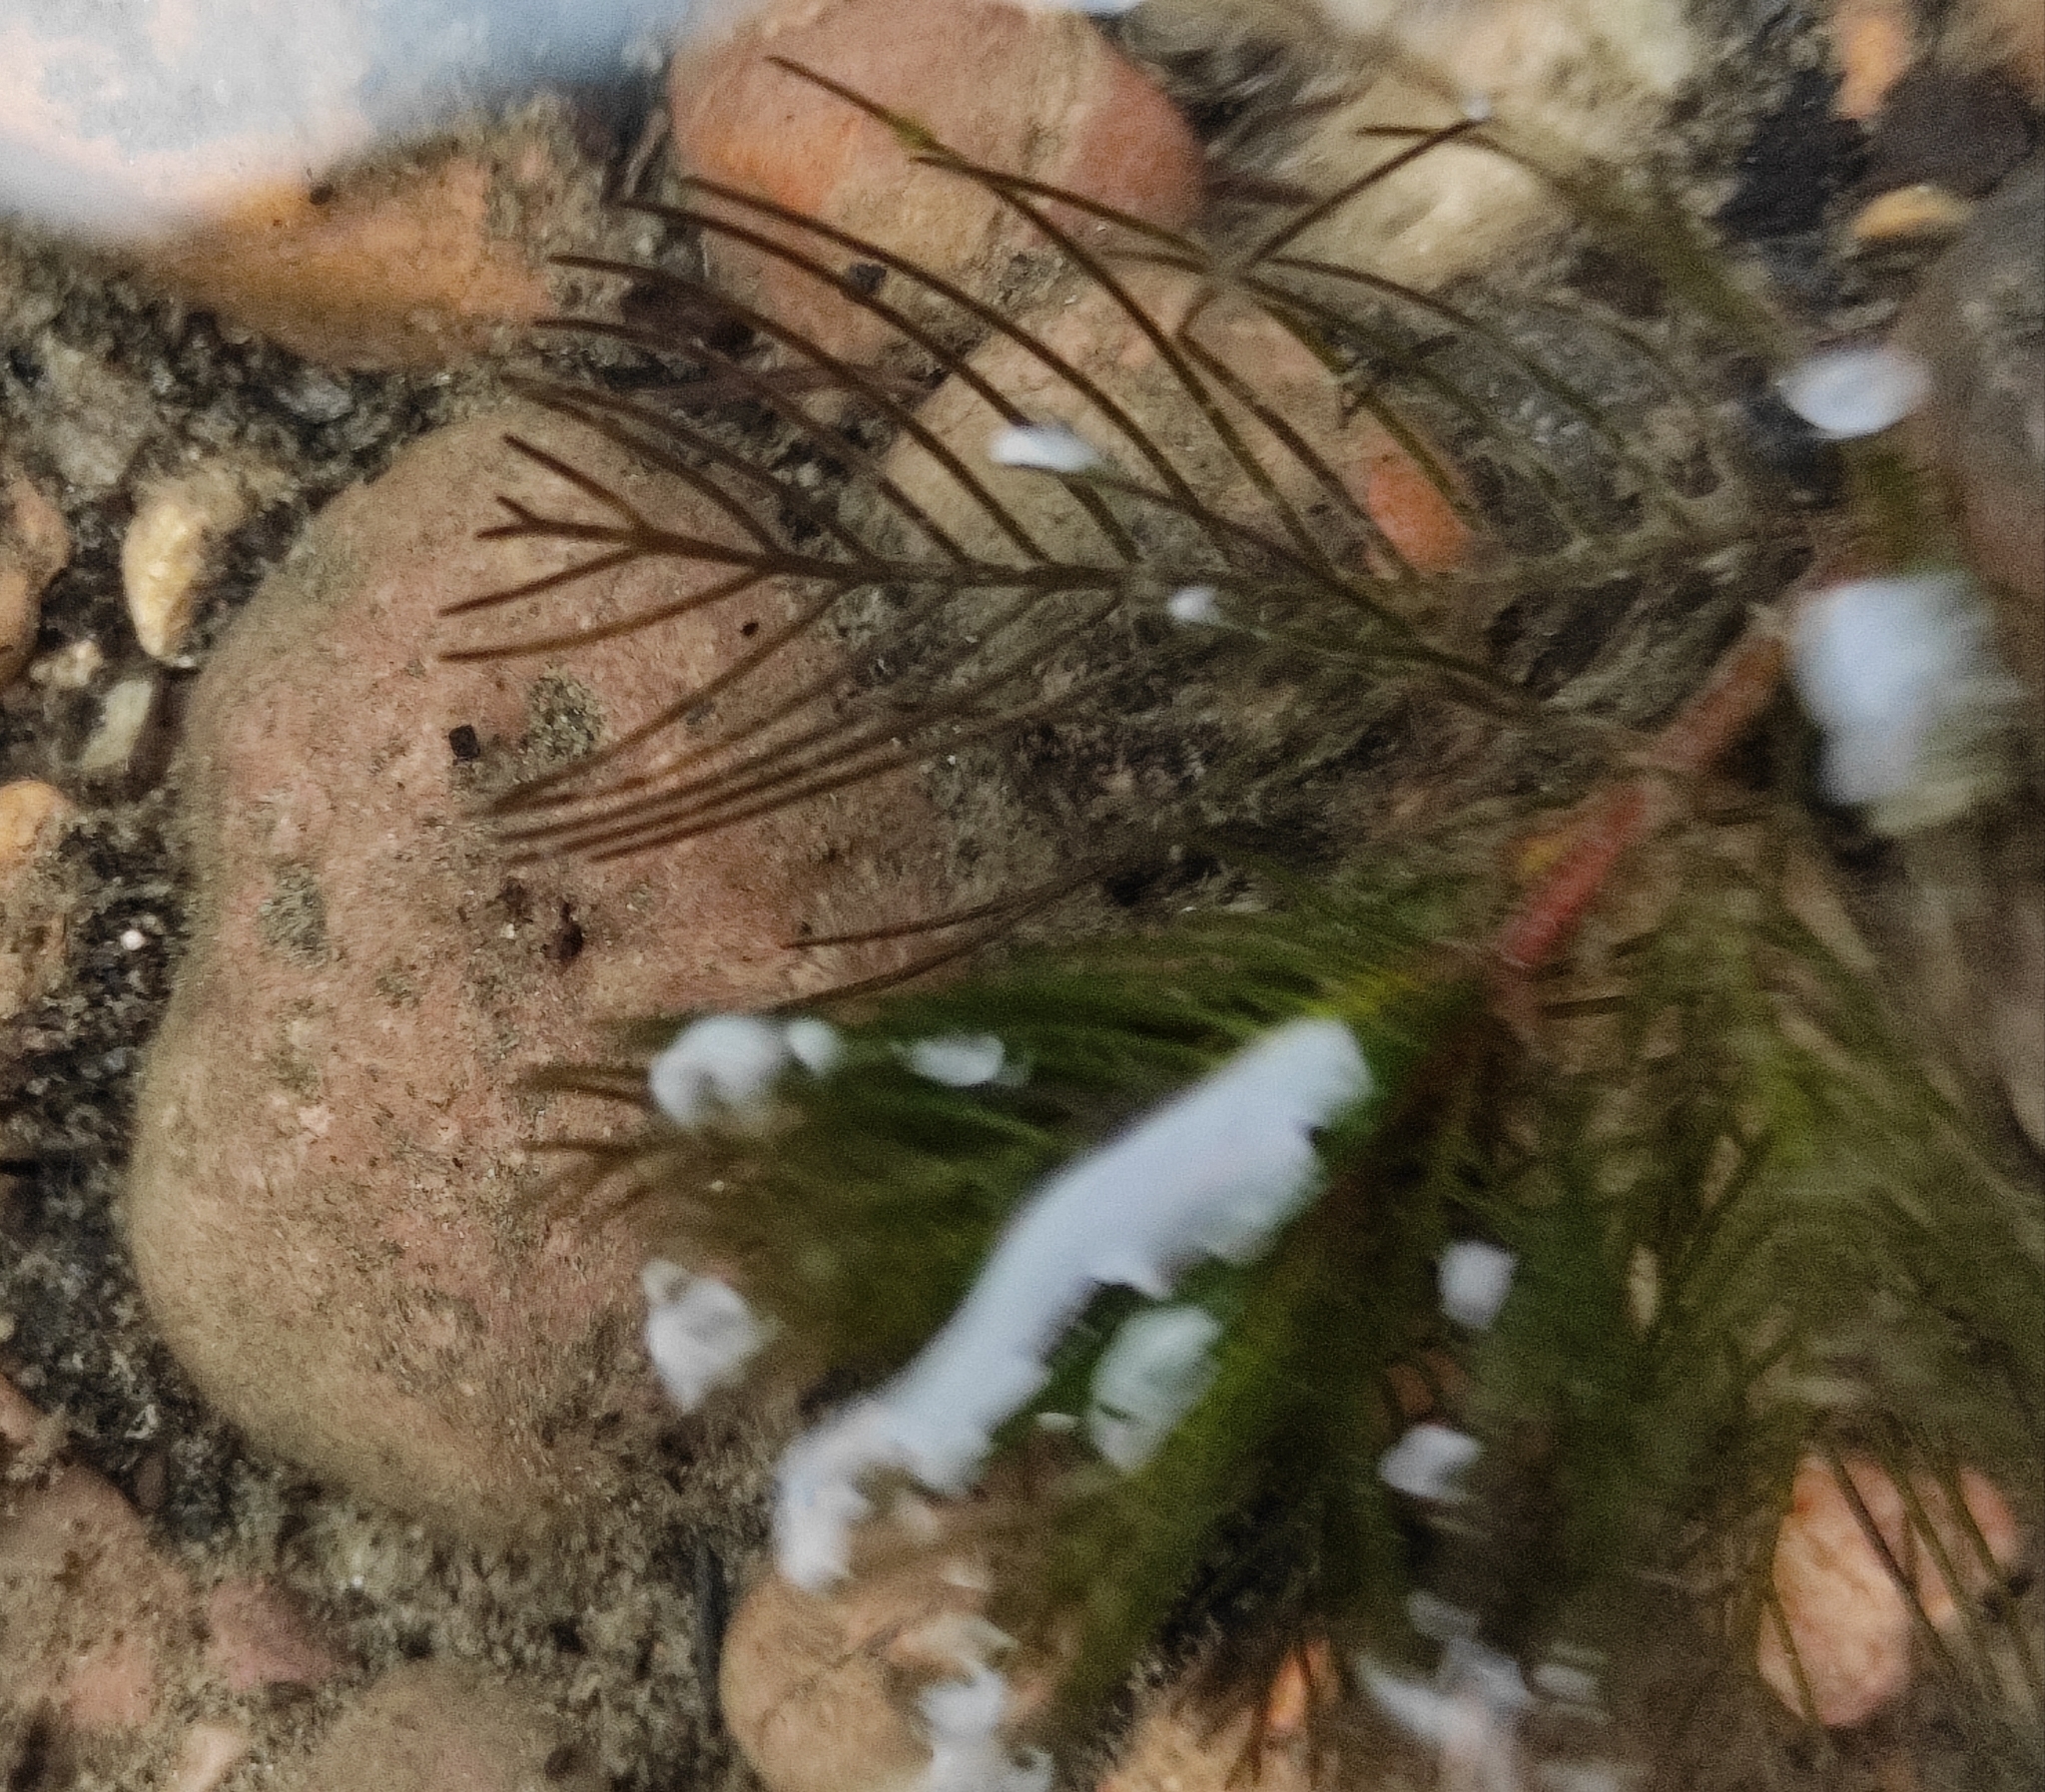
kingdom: Plantae
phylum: Tracheophyta
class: Magnoliopsida
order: Saxifragales
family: Haloragaceae
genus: Myriophyllum
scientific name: Myriophyllum sibiricum
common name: Siberian water-milfoil
